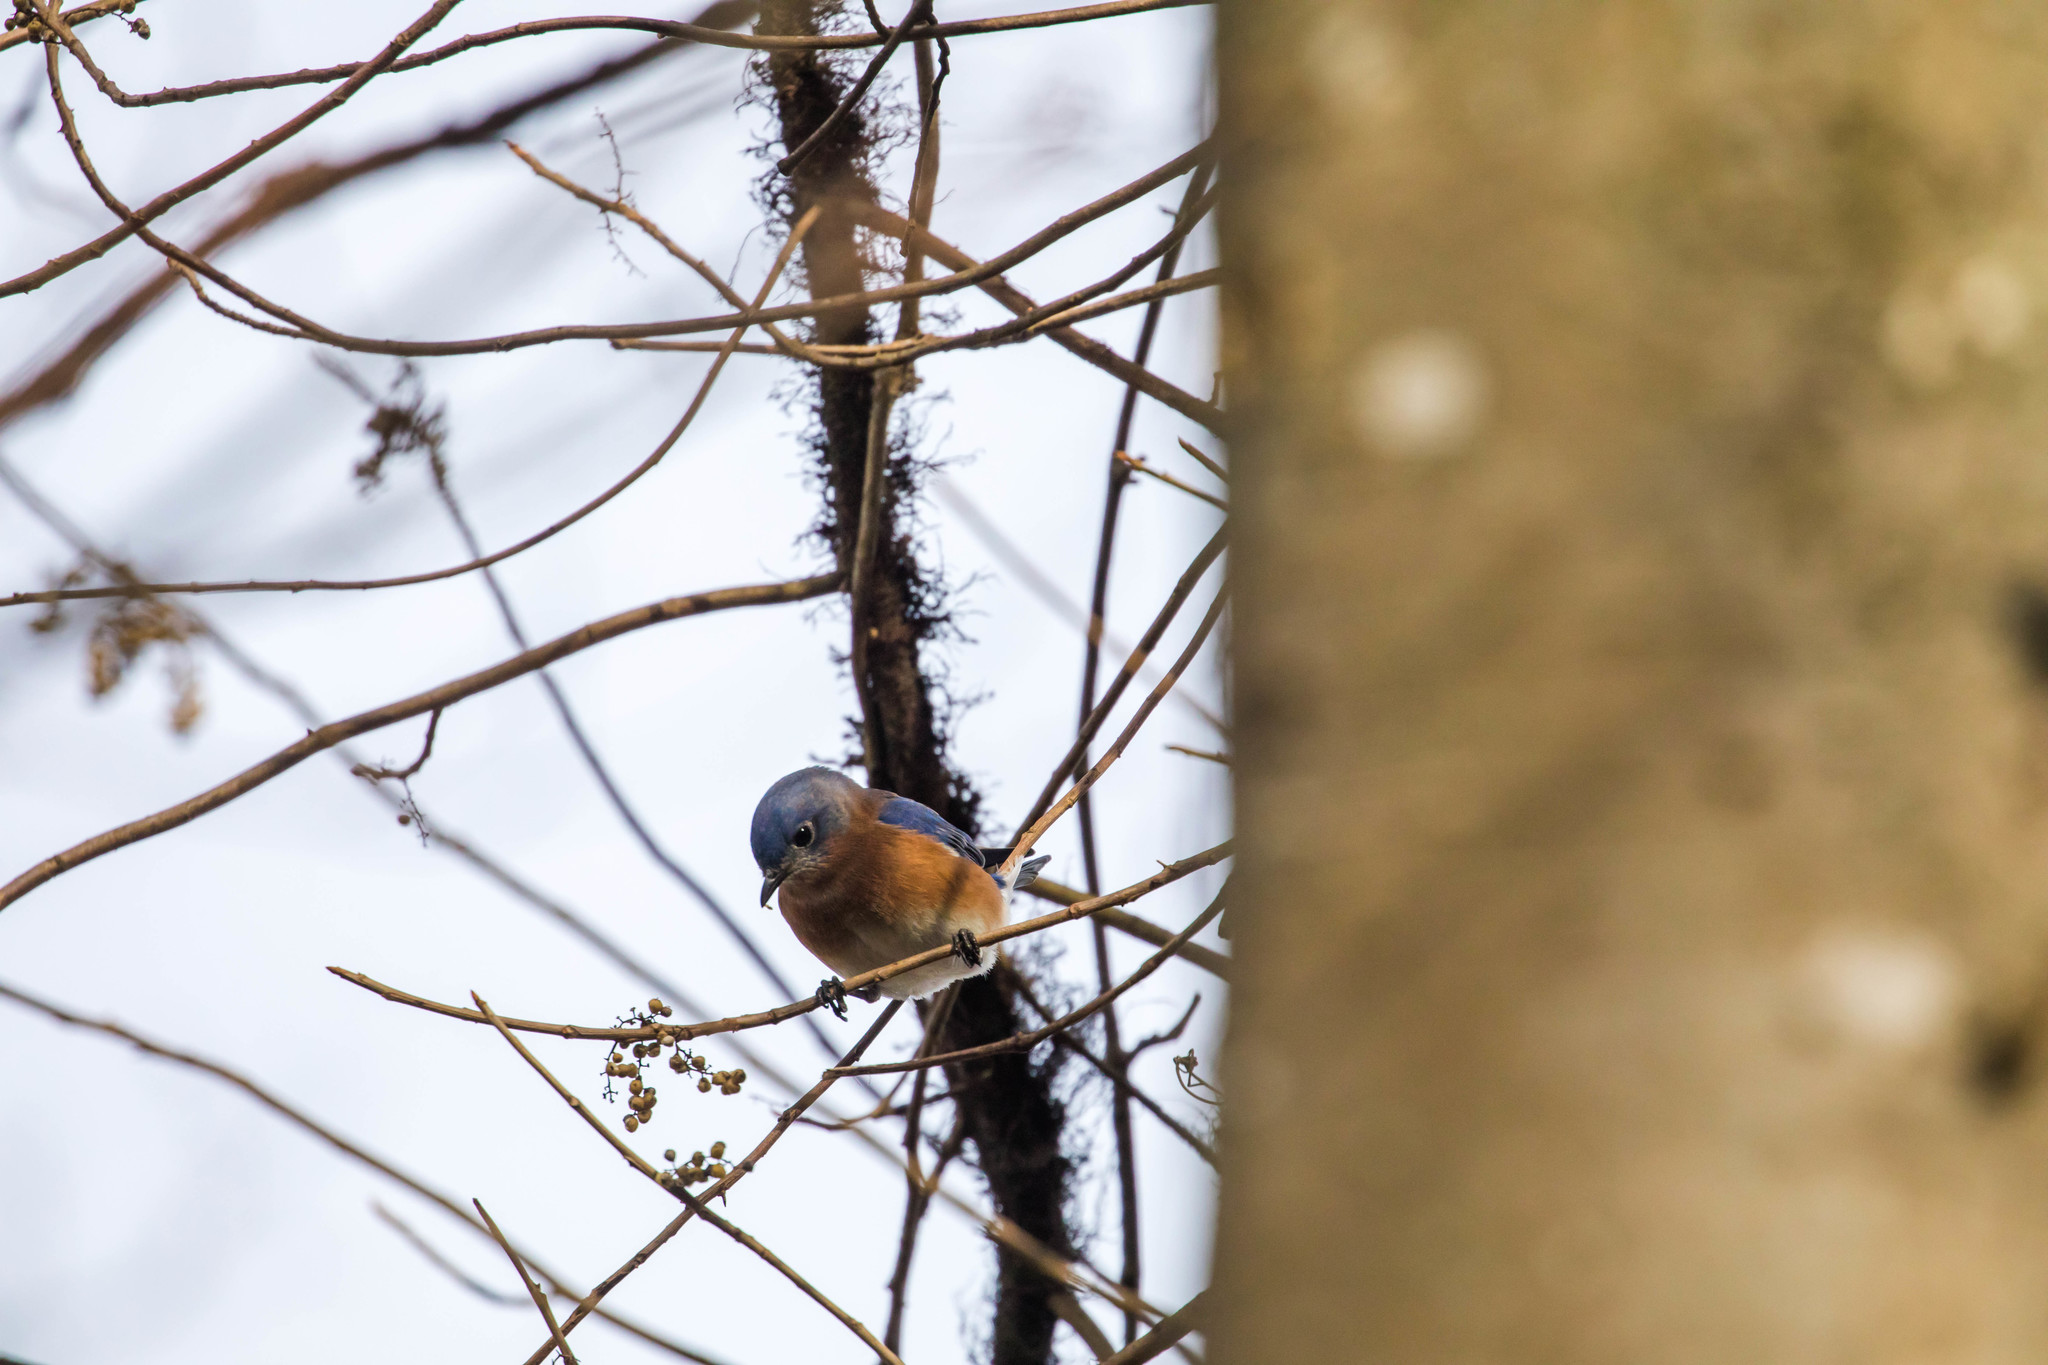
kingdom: Animalia
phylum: Chordata
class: Aves
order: Passeriformes
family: Turdidae
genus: Sialia
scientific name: Sialia sialis
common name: Eastern bluebird
